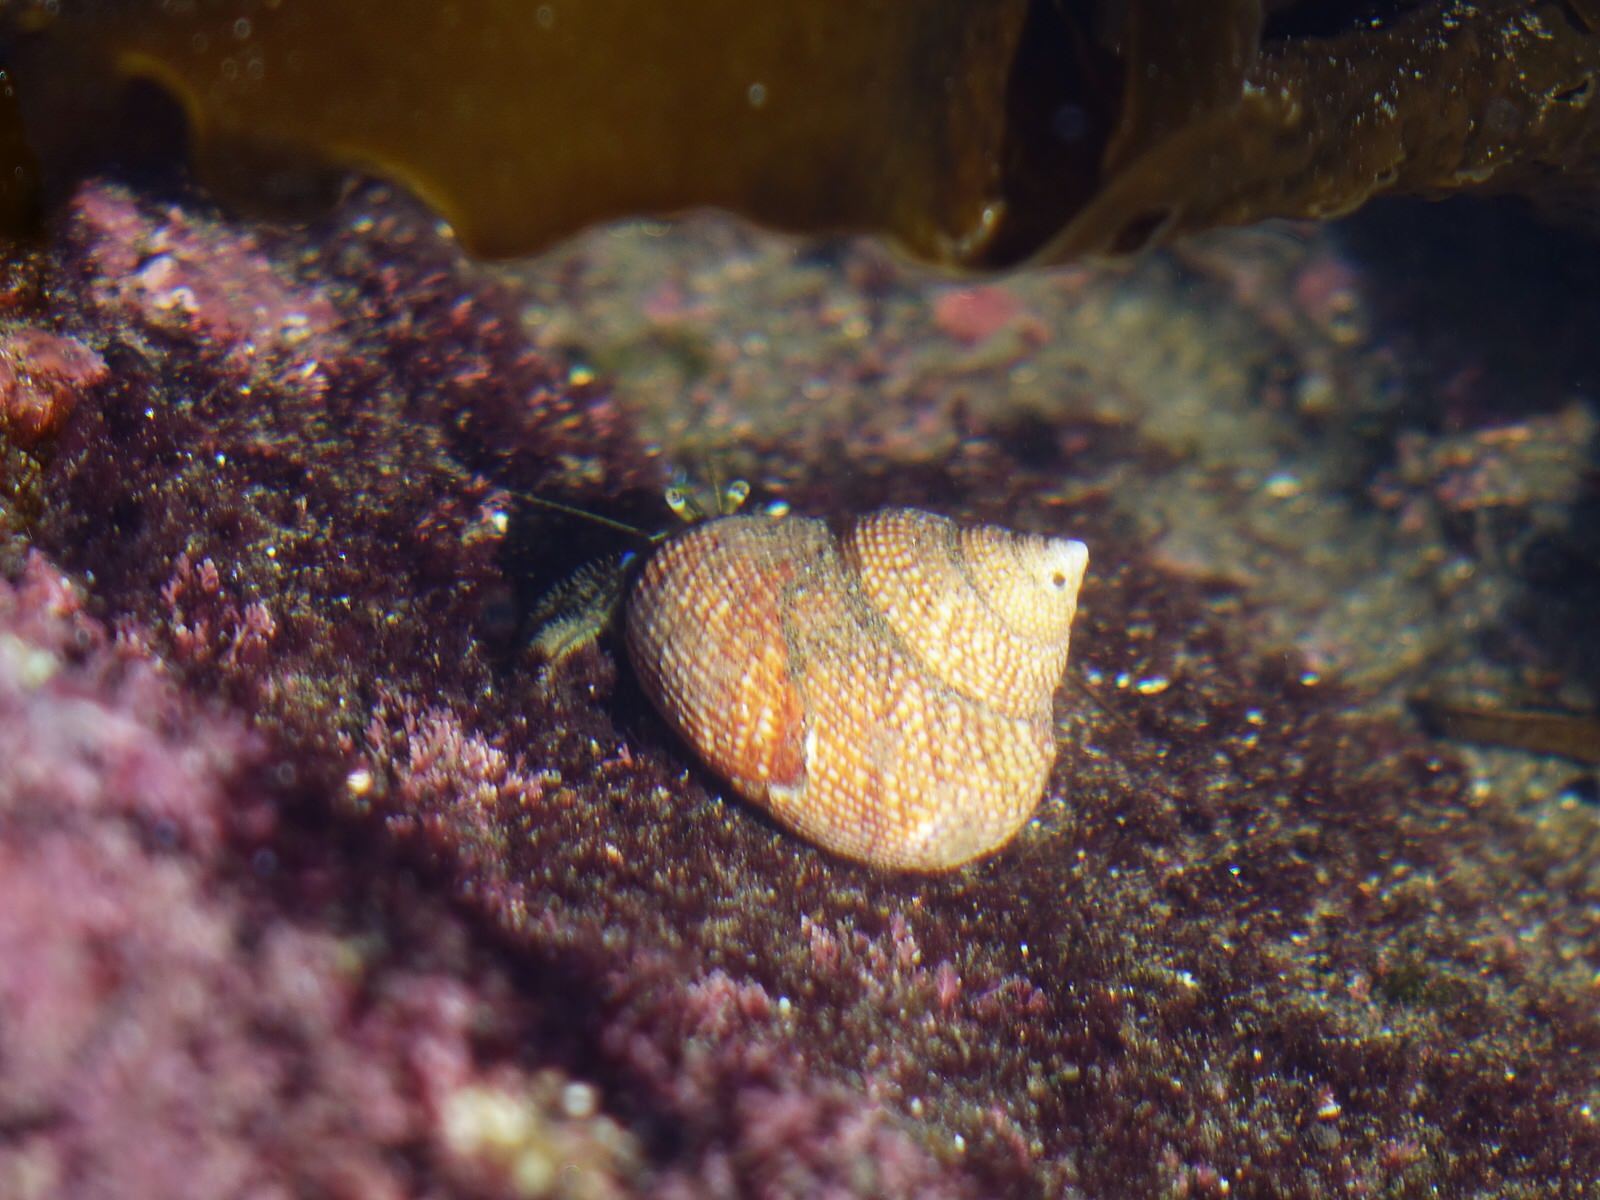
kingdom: Animalia
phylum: Mollusca
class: Gastropoda
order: Trochida
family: Calliostomatidae
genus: Maurea
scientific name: Maurea punctulata
